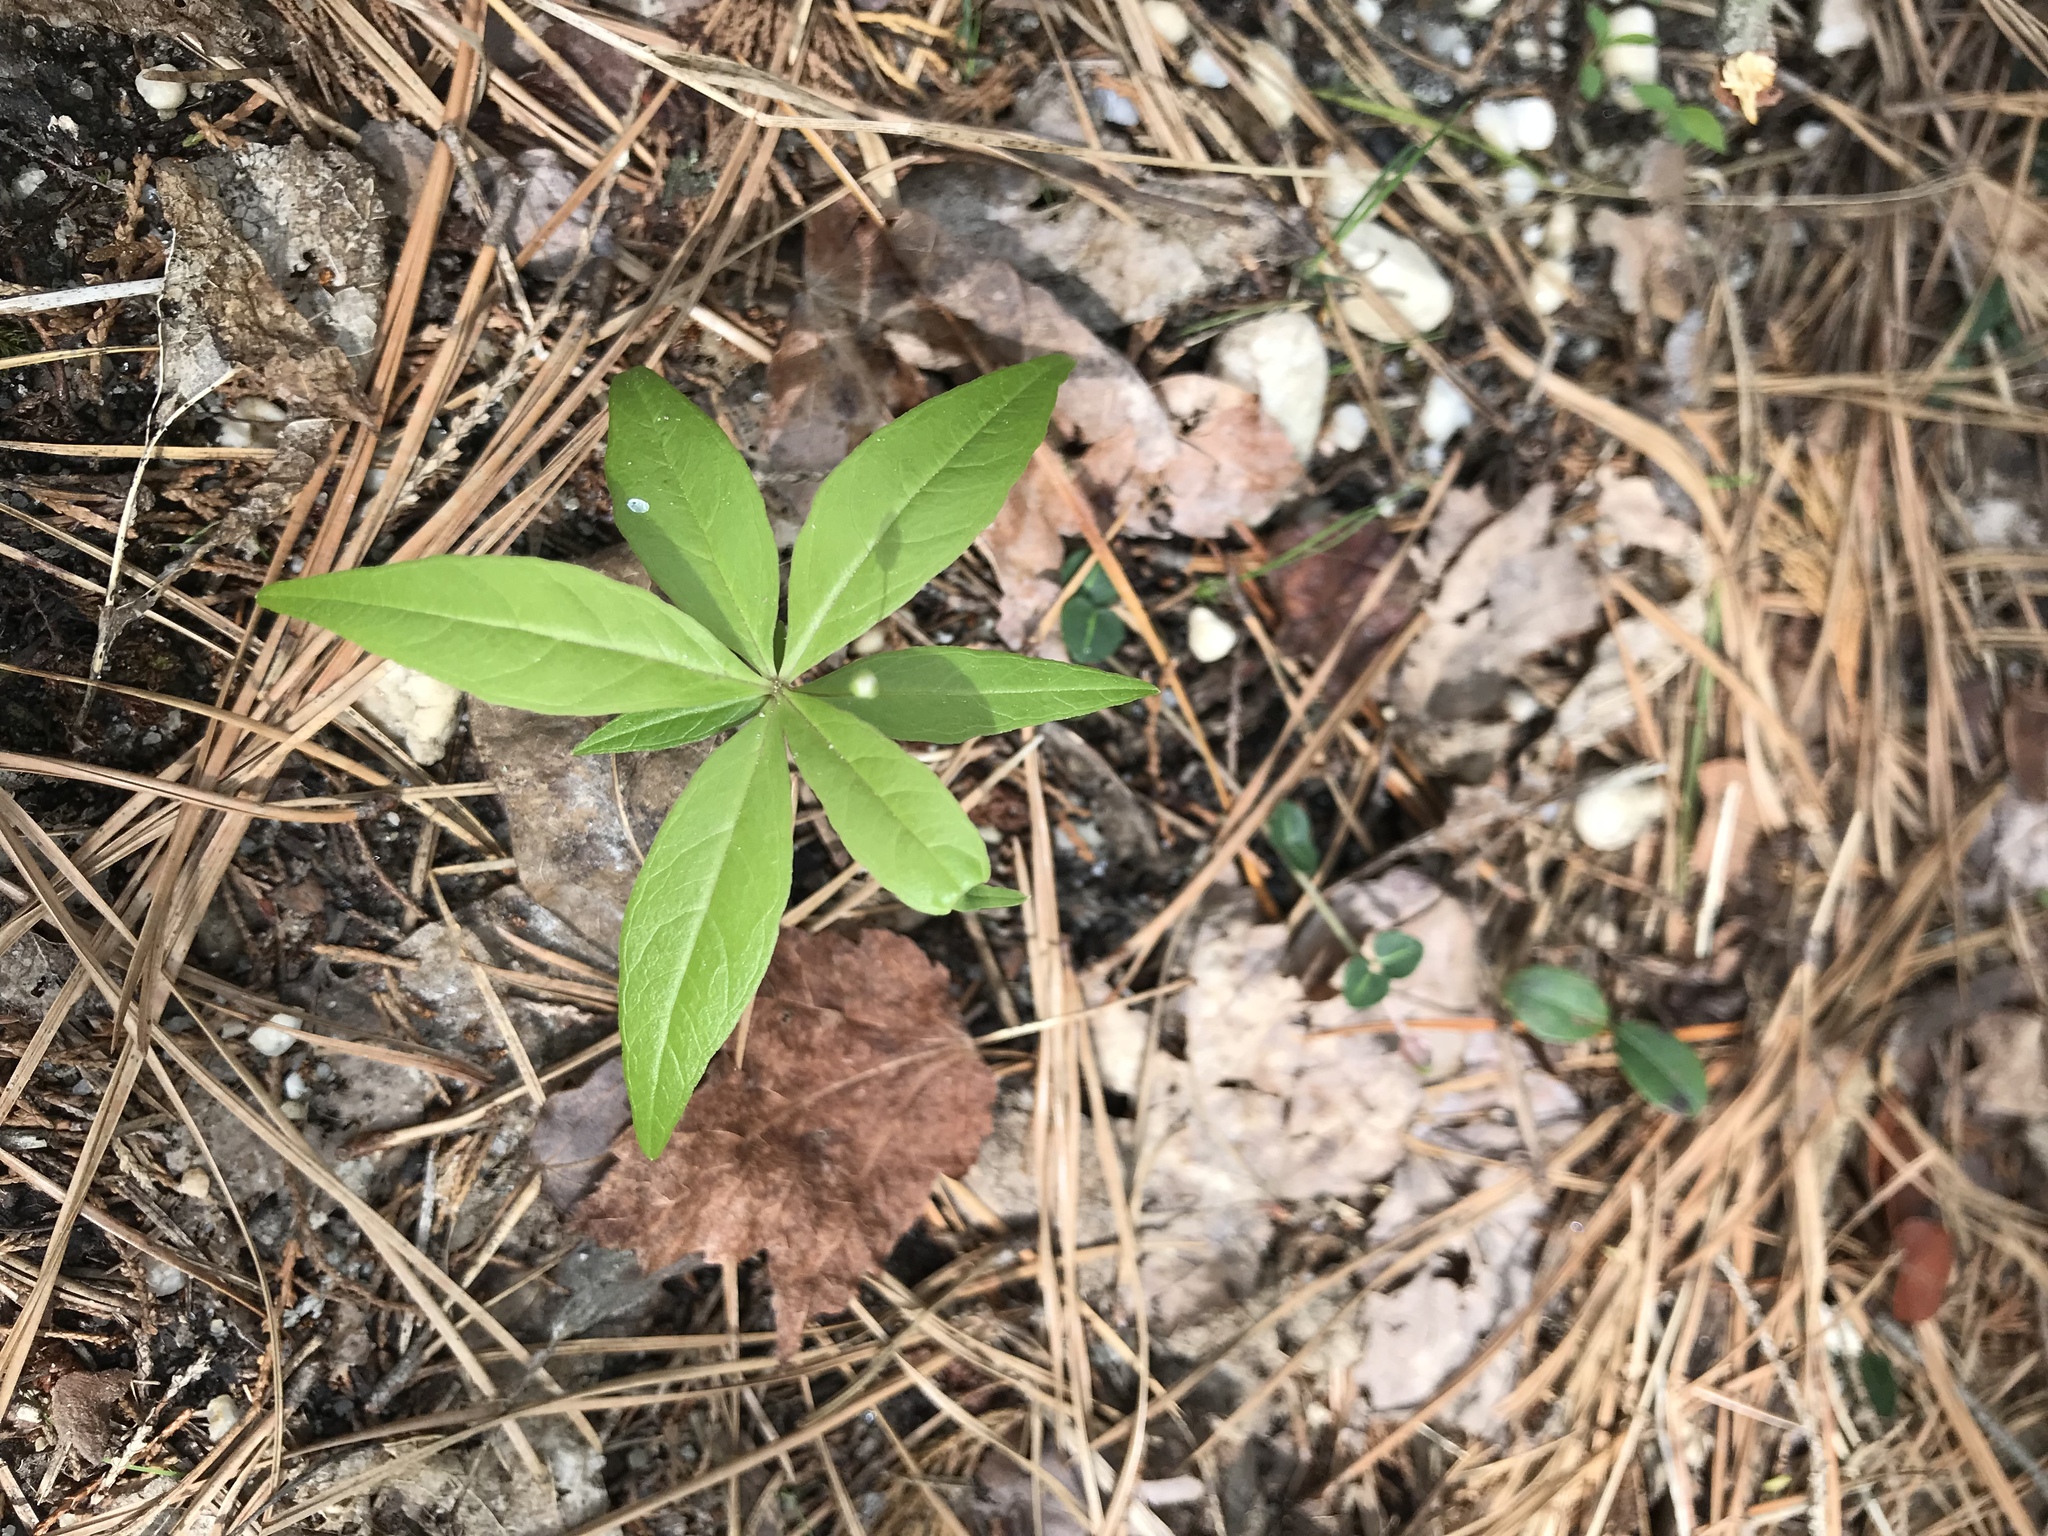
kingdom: Plantae
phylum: Tracheophyta
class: Magnoliopsida
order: Ericales
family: Primulaceae
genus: Lysimachia
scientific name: Lysimachia borealis
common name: American starflower
